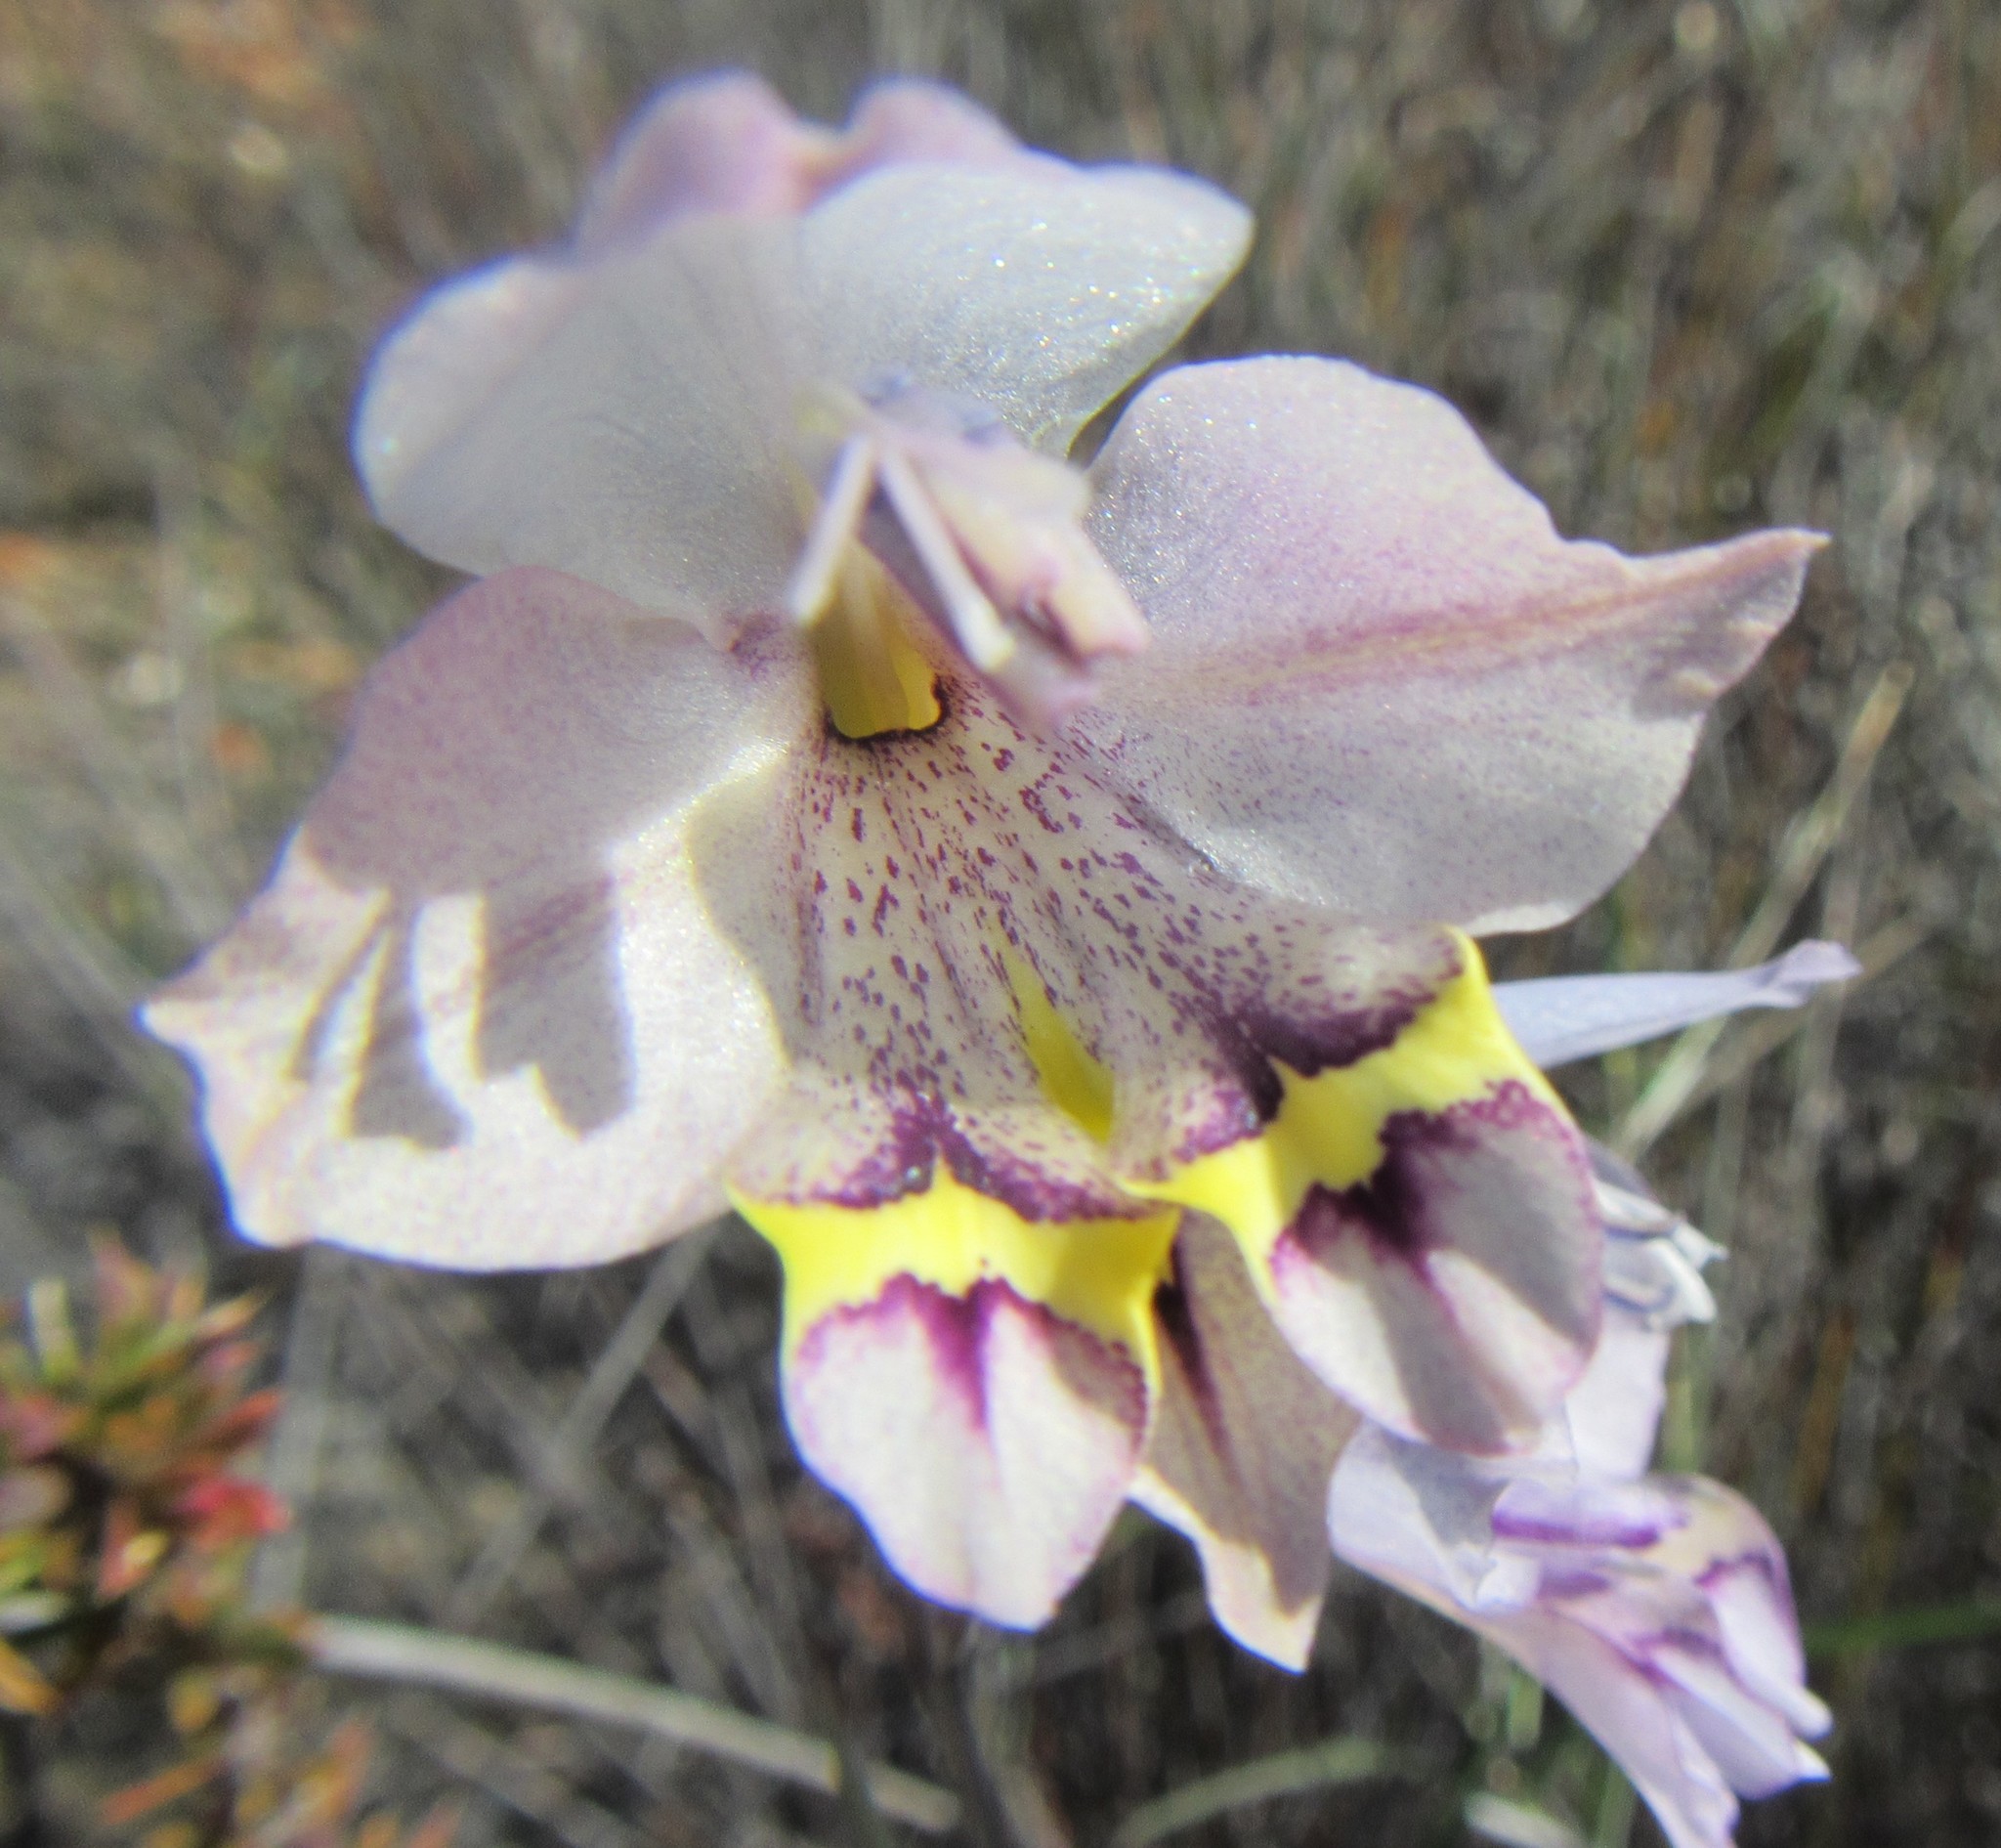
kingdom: Plantae
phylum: Tracheophyta
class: Liliopsida
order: Asparagales
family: Iridaceae
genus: Gladiolus
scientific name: Gladiolus rogersii
